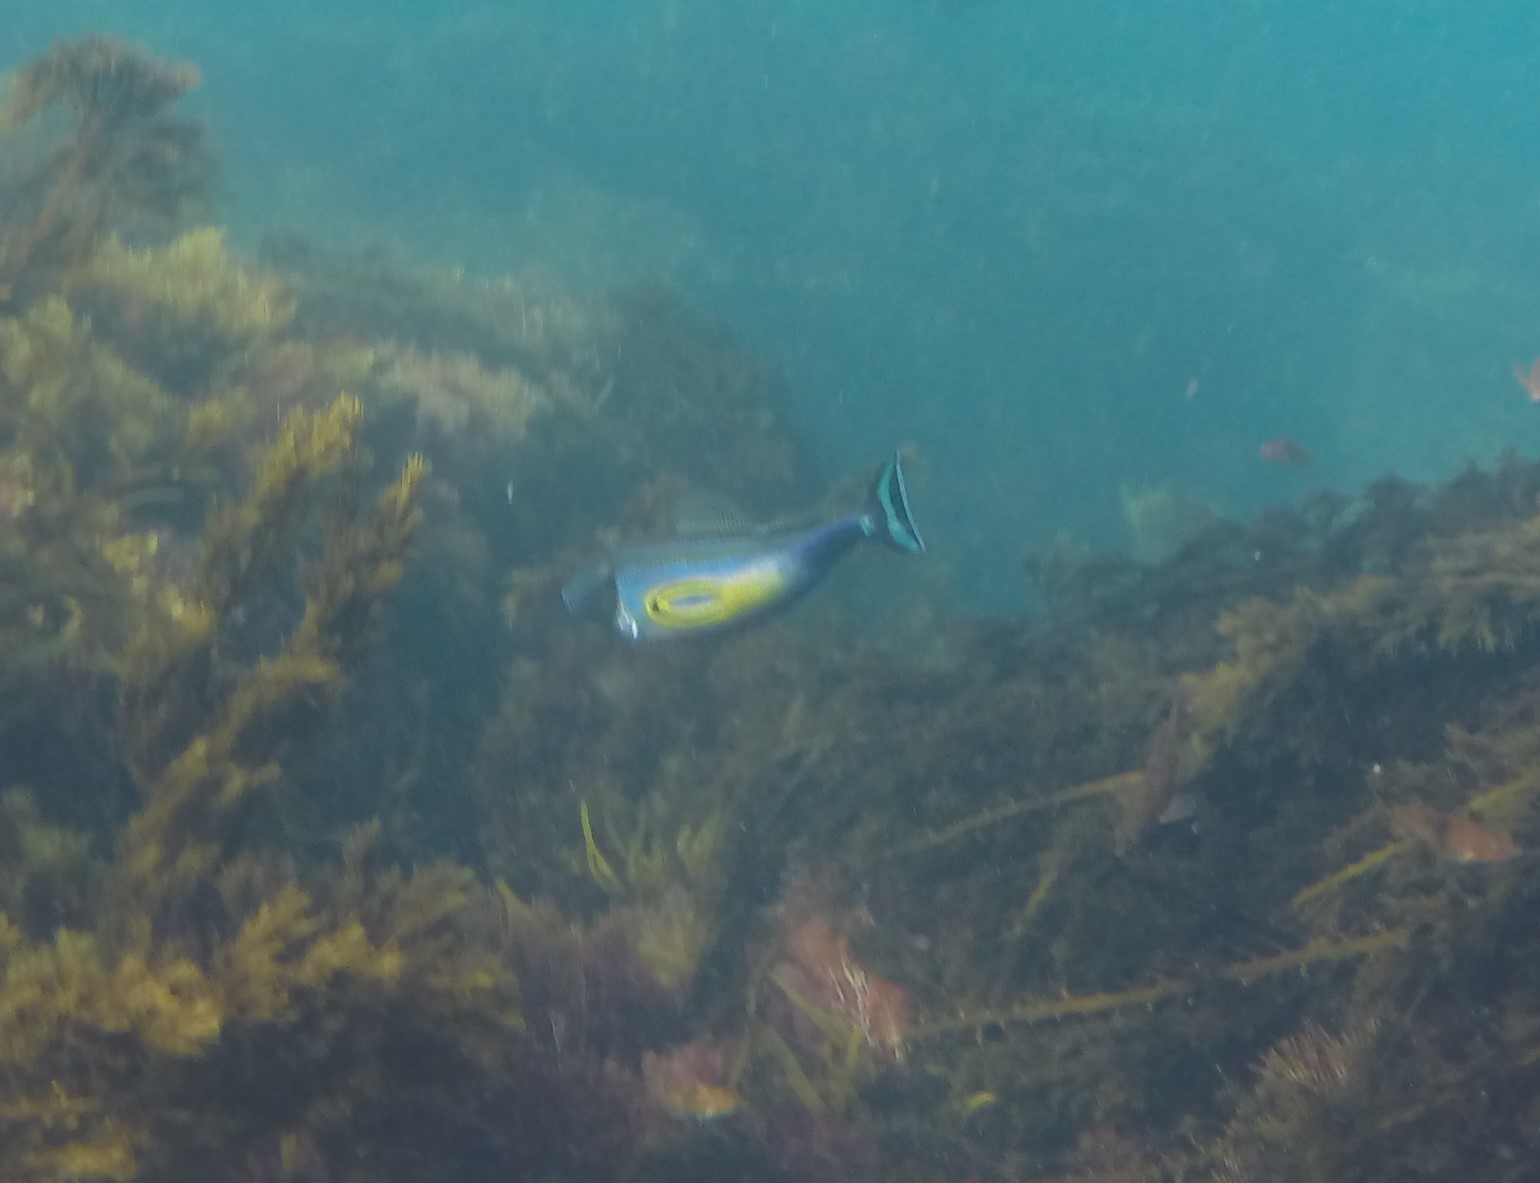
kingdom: Animalia
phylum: Chordata
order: Tetraodontiformes
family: Monacanthidae
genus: Meuschenia
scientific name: Meuschenia hippocrepis
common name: Horse-shoe leatherjacket
